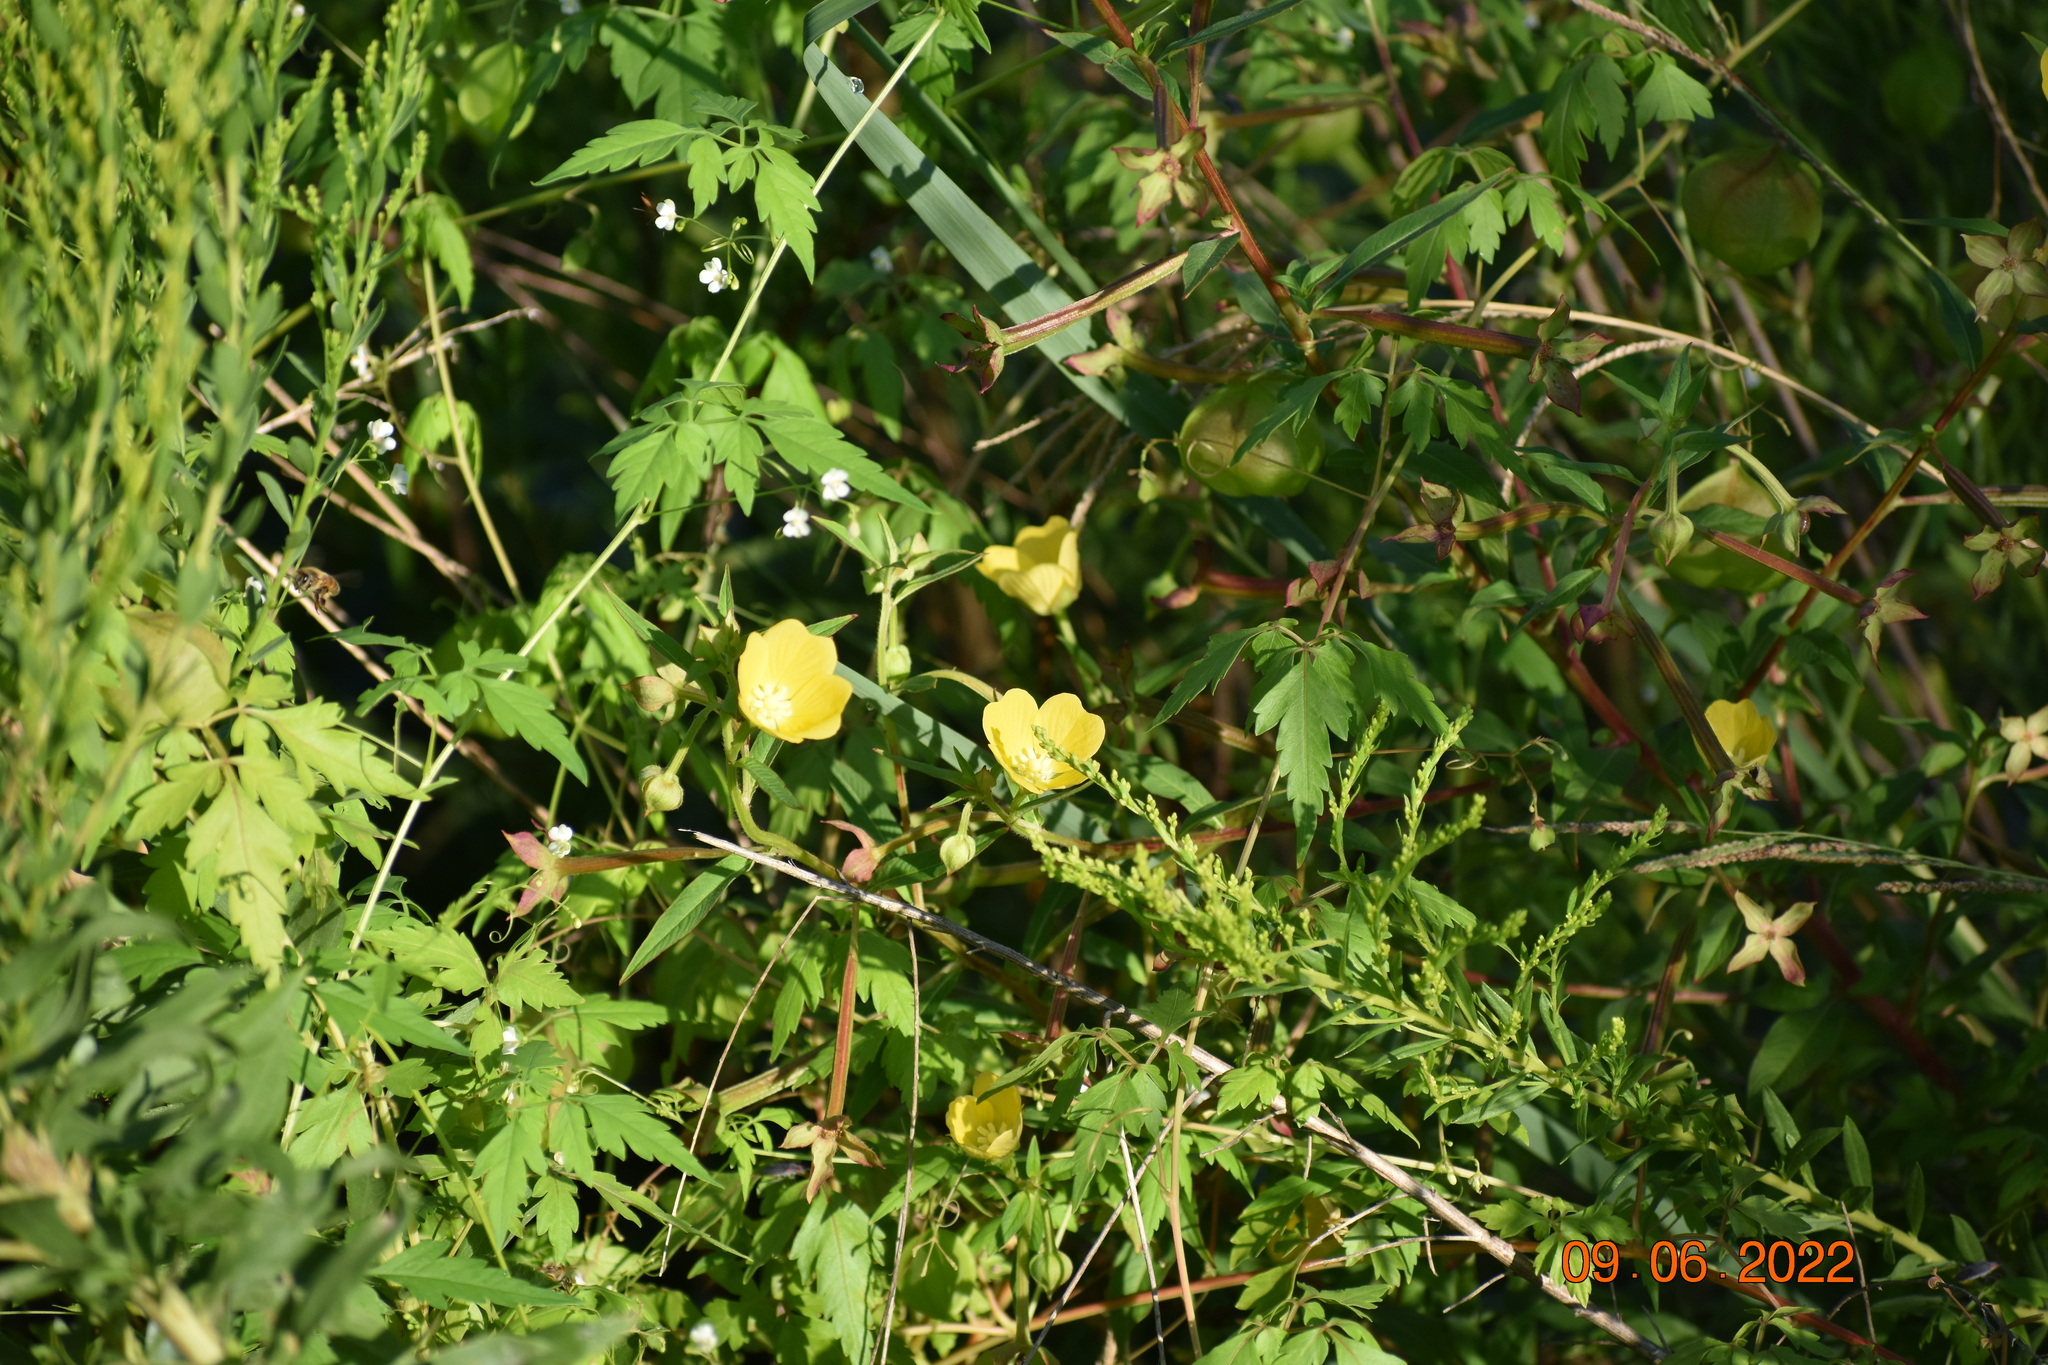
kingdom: Plantae
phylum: Tracheophyta
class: Magnoliopsida
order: Sapindales
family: Sapindaceae
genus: Cardiospermum
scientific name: Cardiospermum halicacabum
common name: Balloon vine
